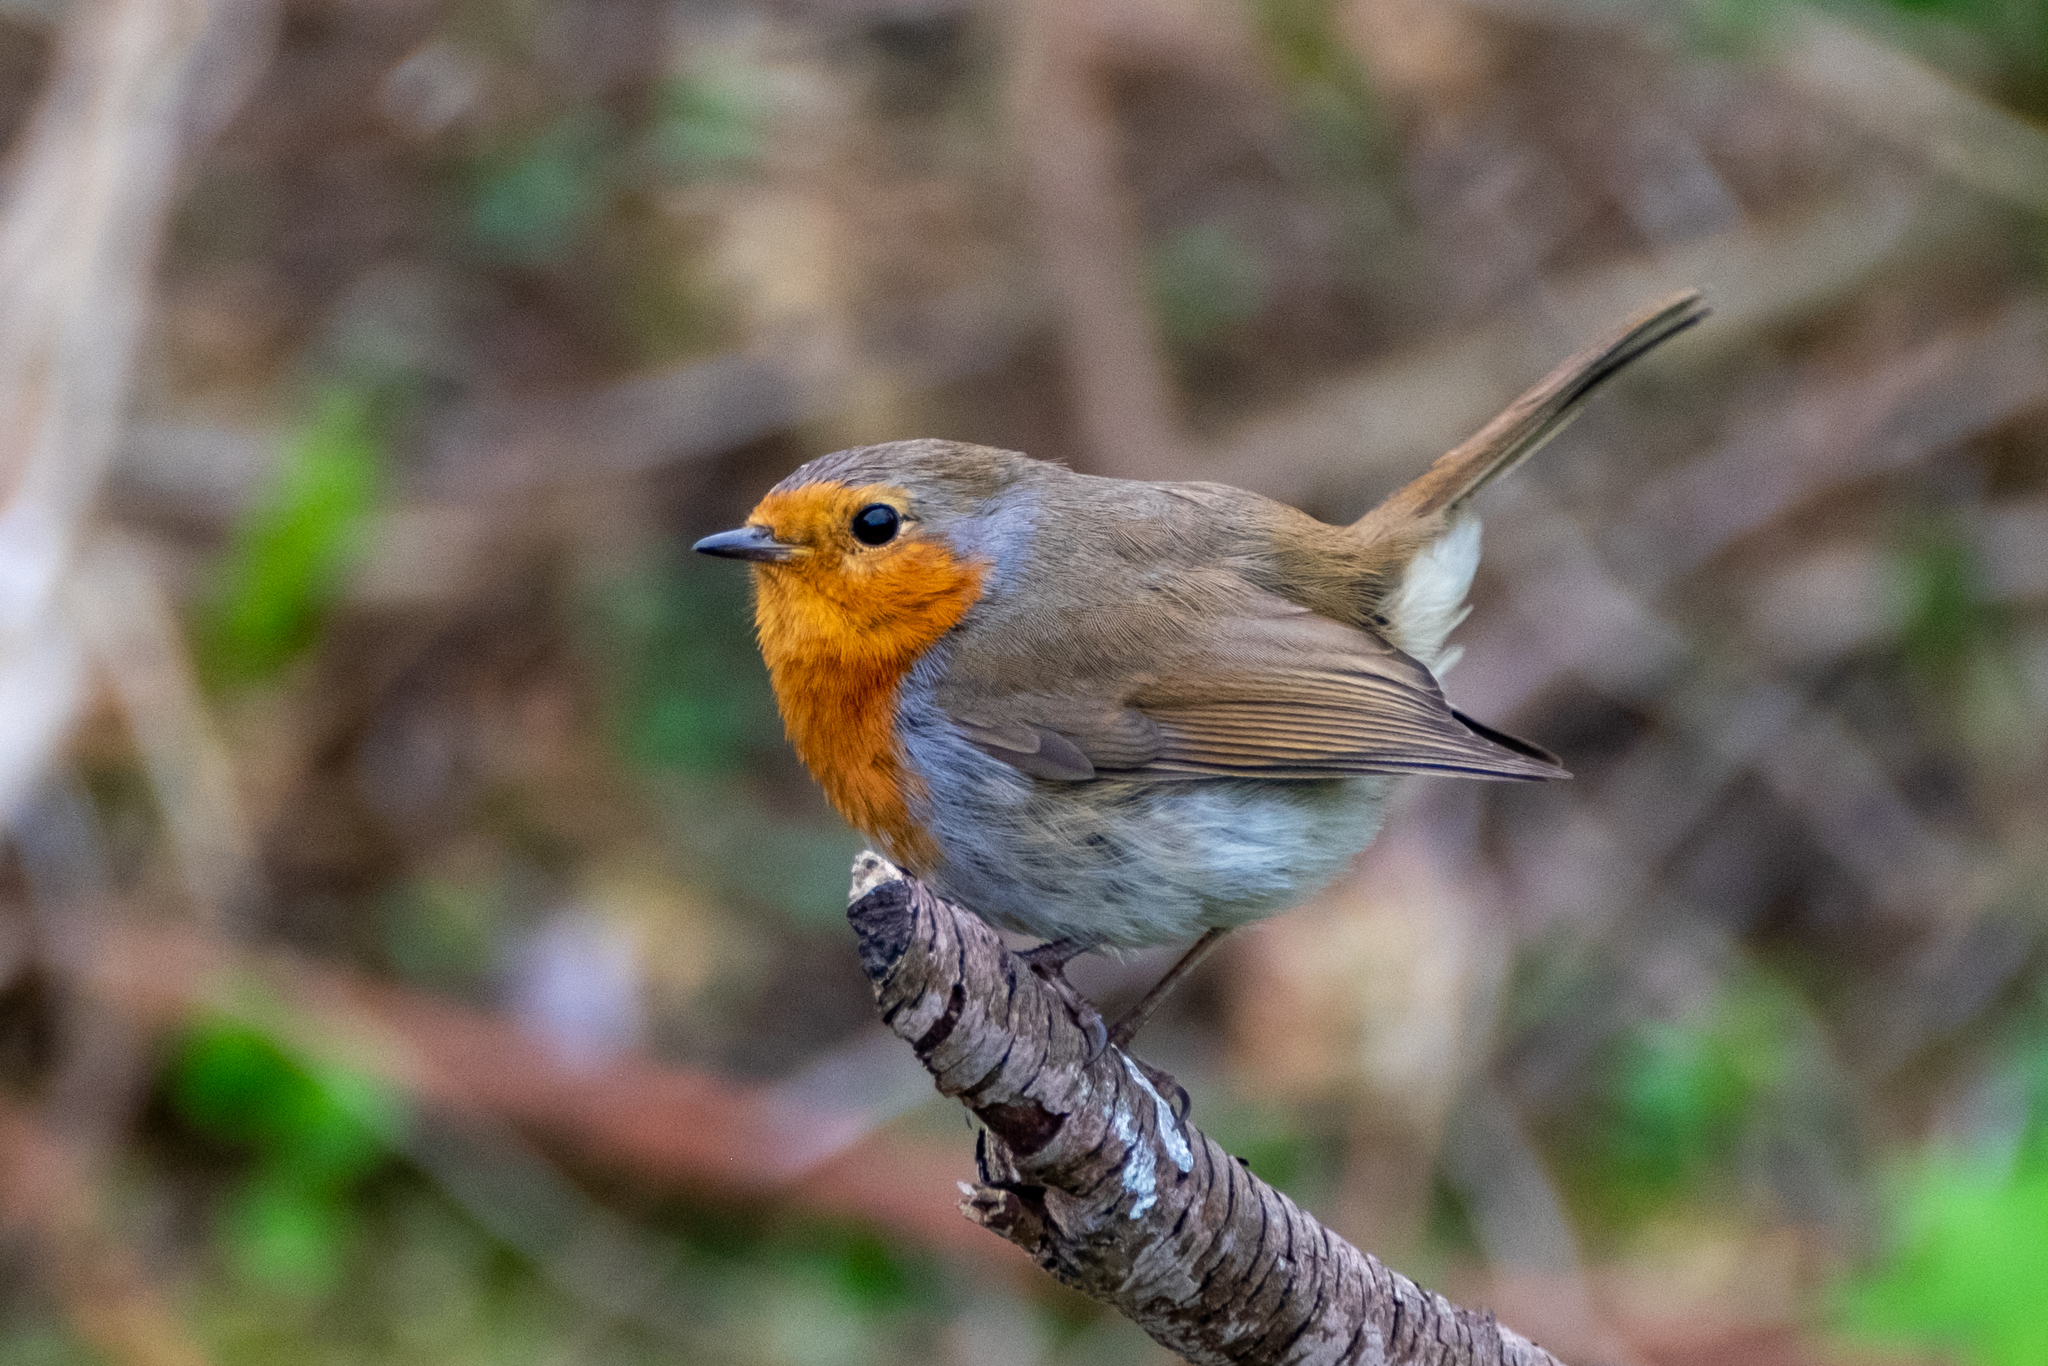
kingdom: Animalia
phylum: Chordata
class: Aves
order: Passeriformes
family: Muscicapidae
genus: Erithacus
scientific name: Erithacus rubecula
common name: European robin
